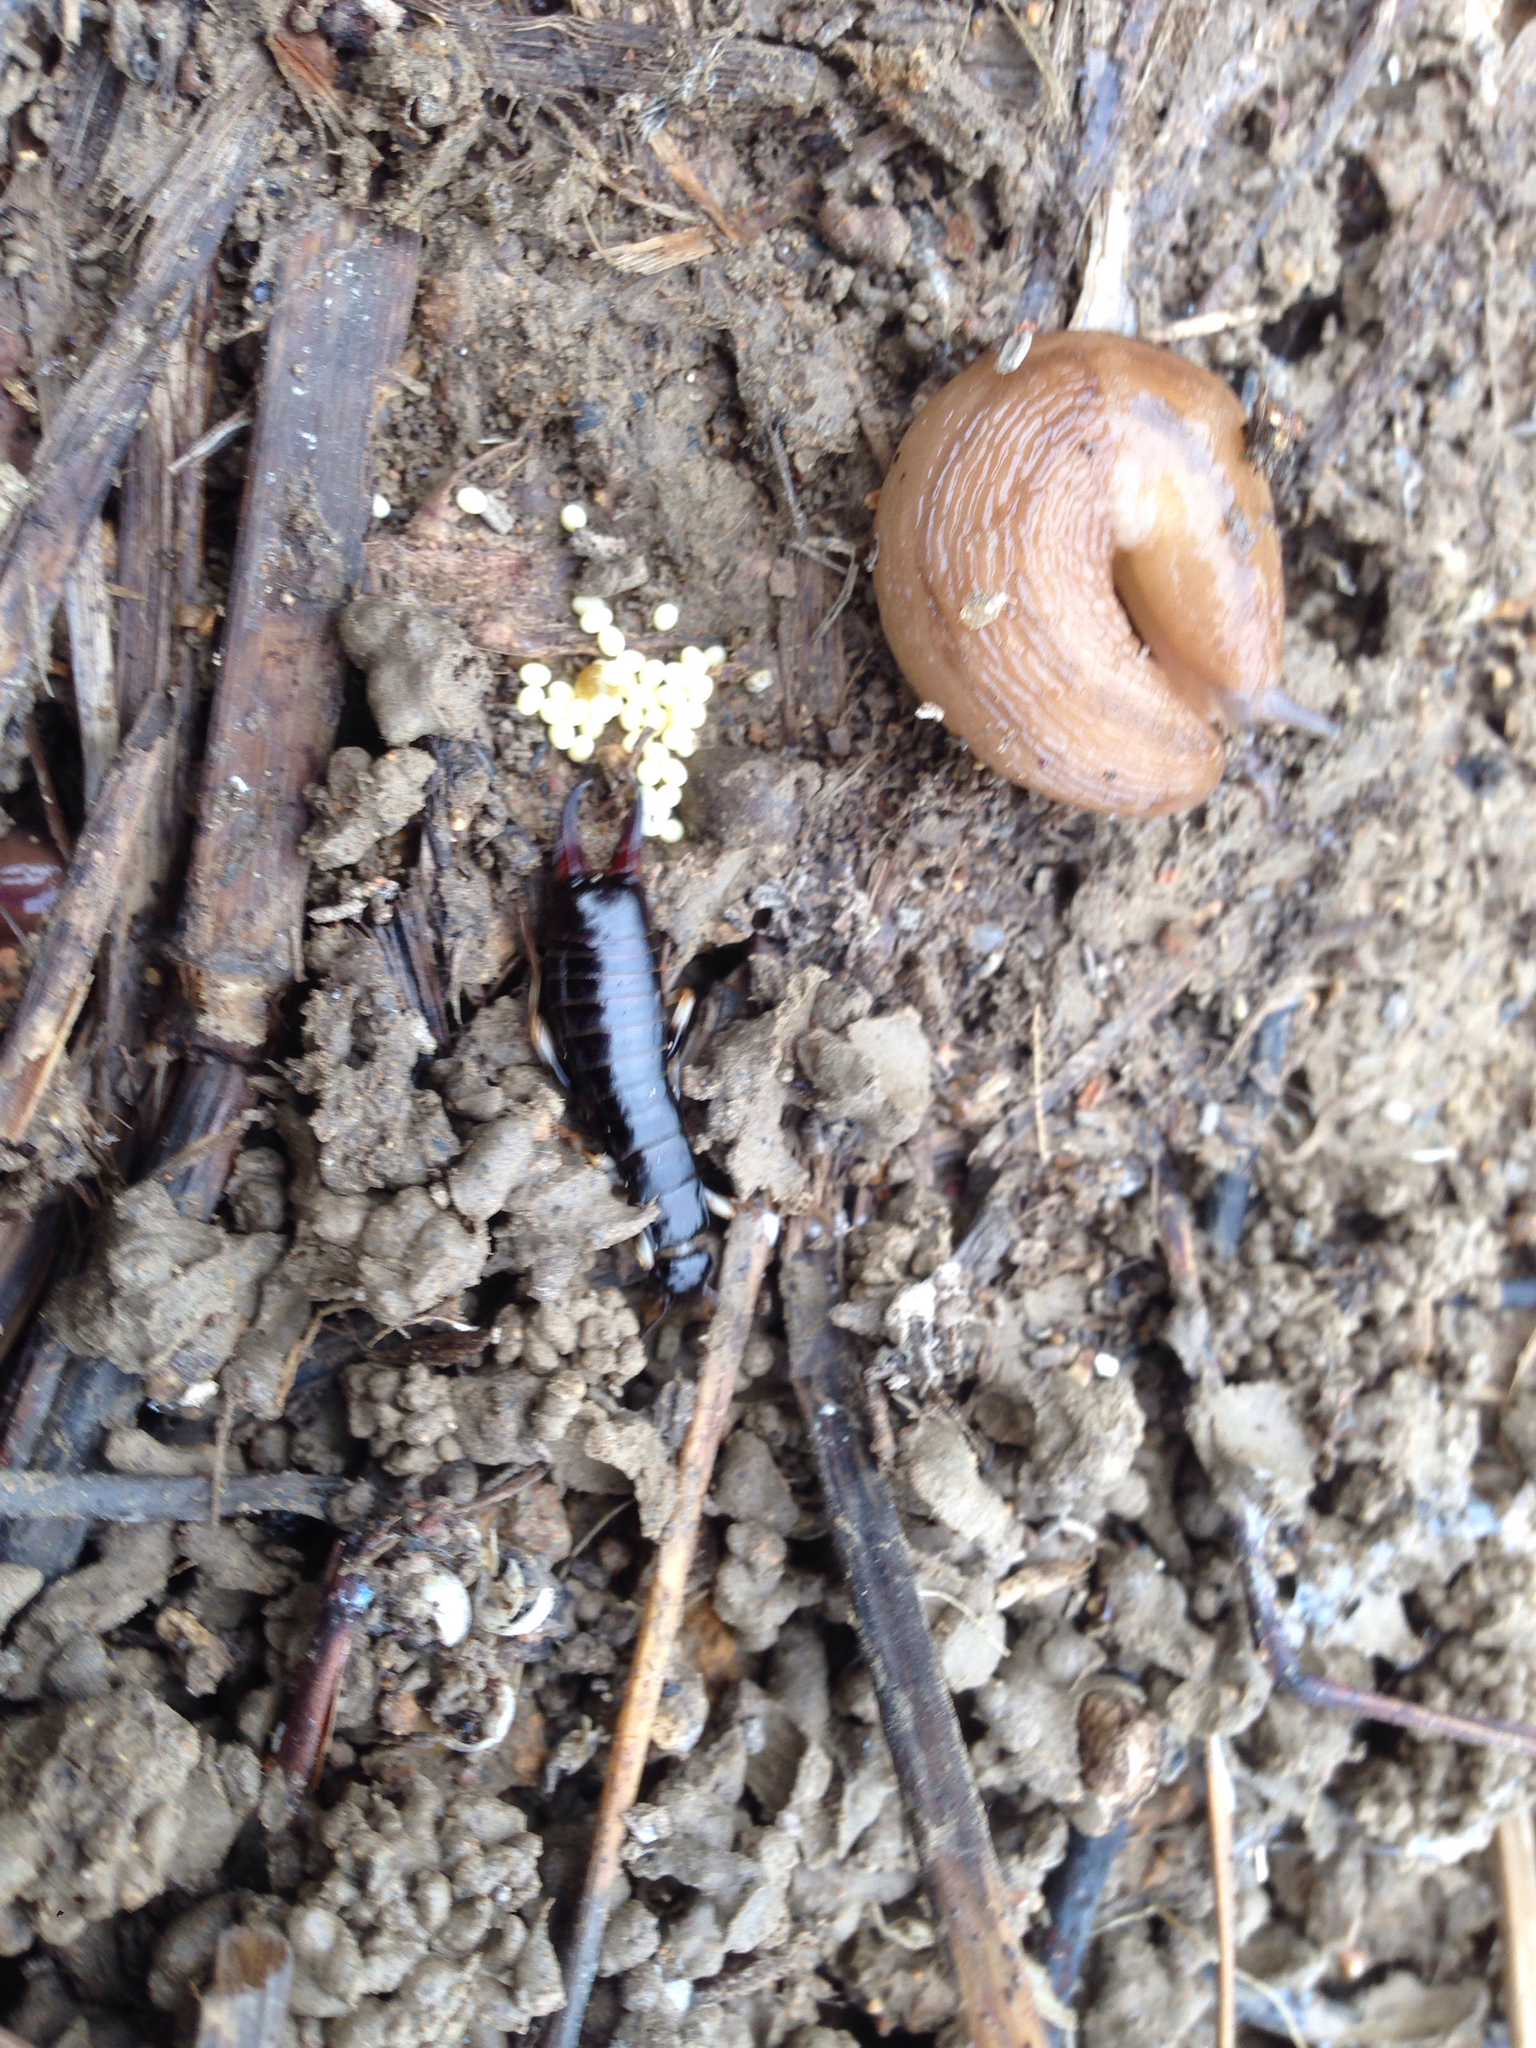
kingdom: Animalia
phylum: Arthropoda
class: Insecta
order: Dermaptera
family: Anisolabididae
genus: Anisolabella
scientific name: Anisolabella marginalis
